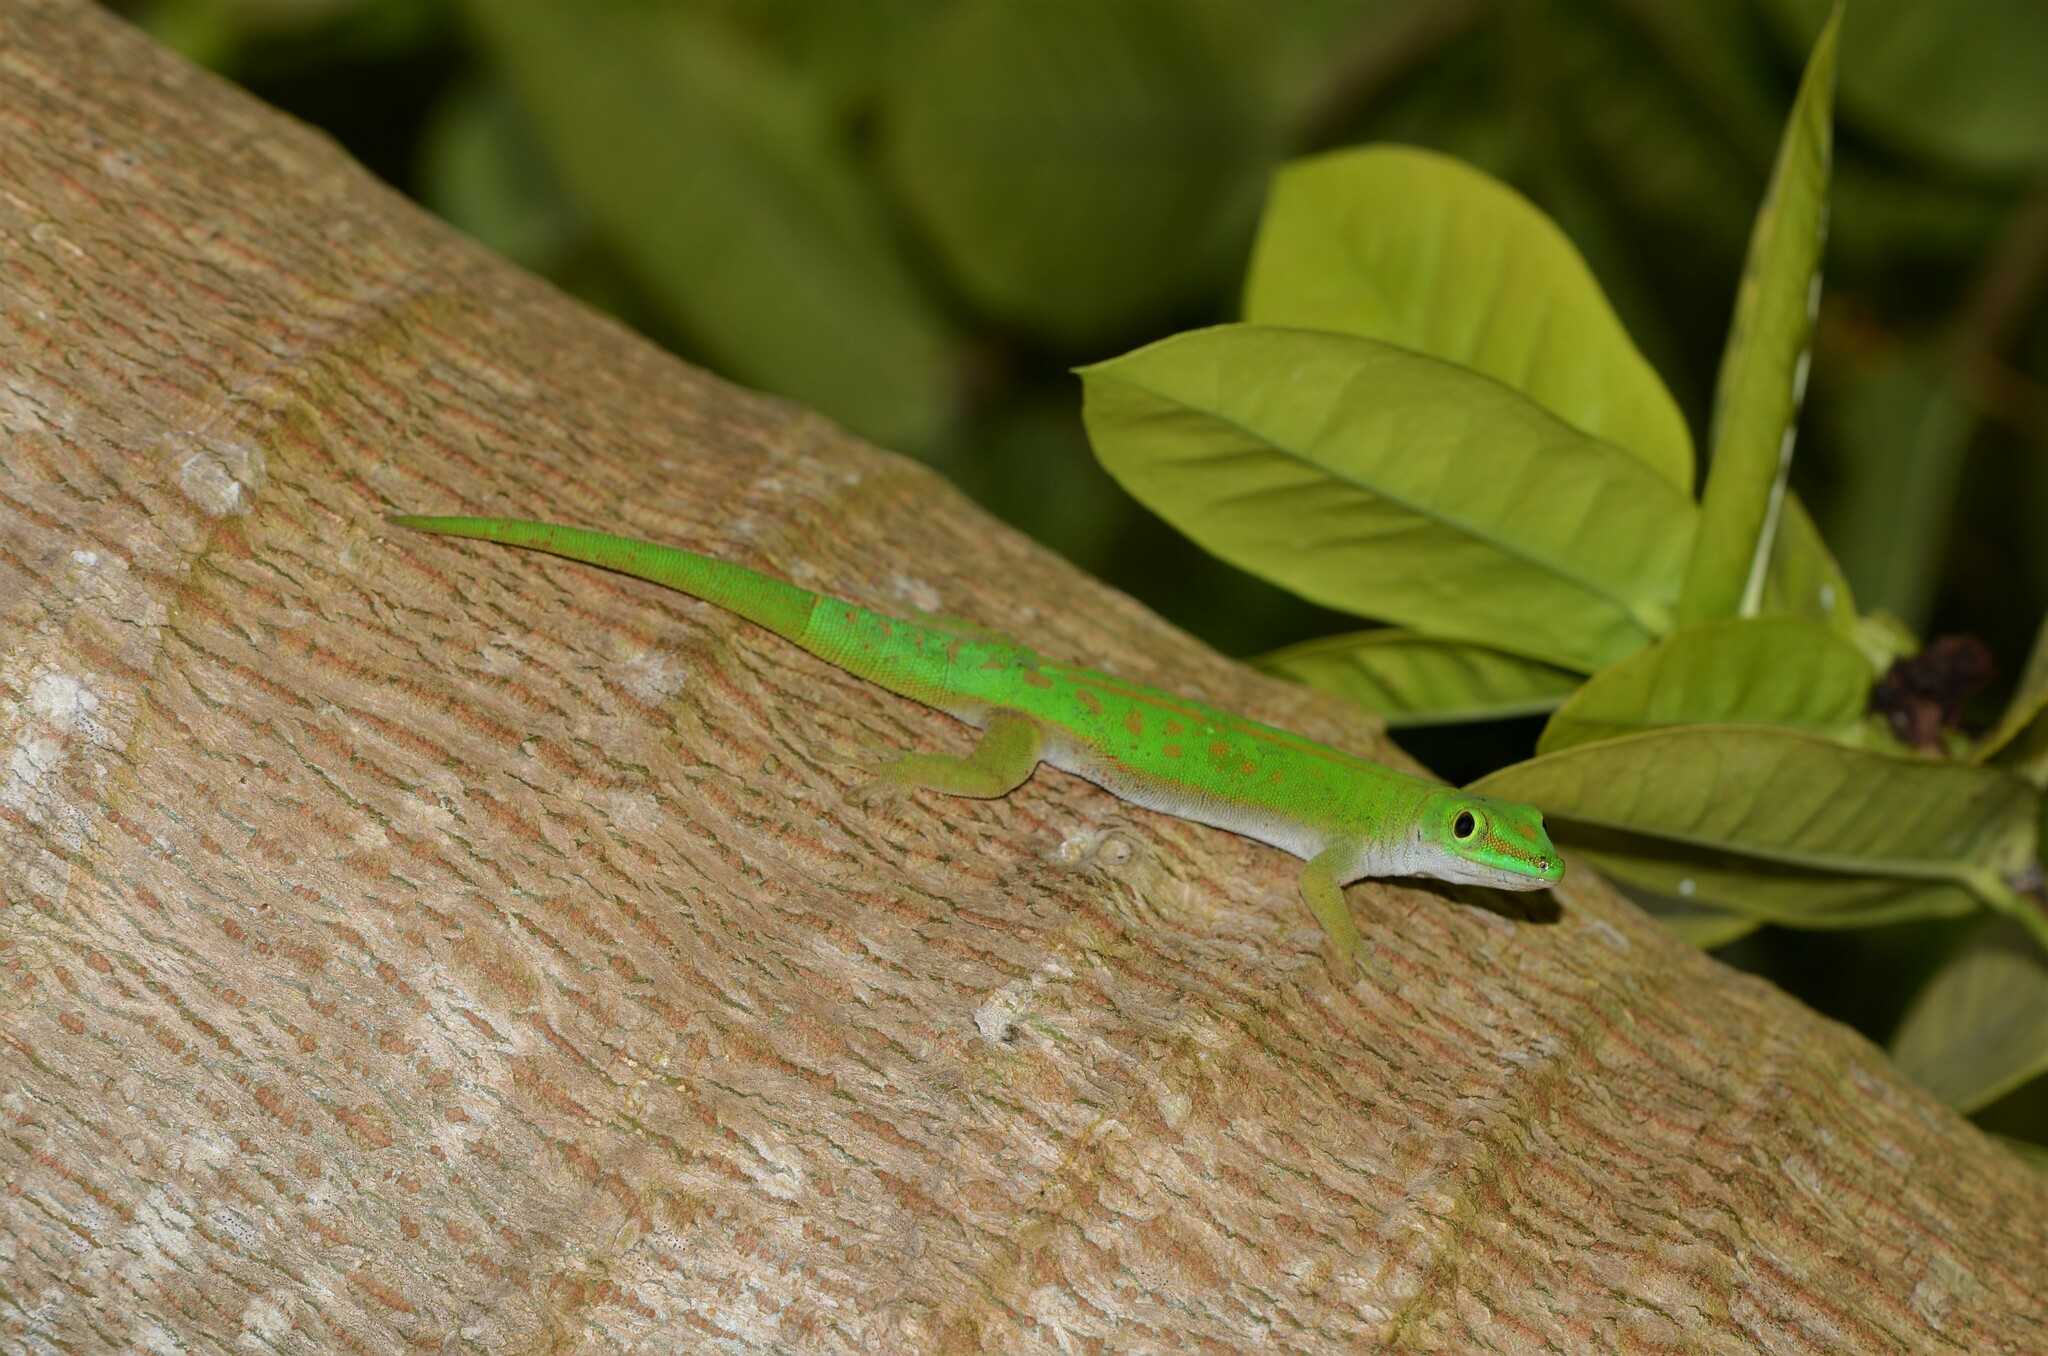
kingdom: Animalia
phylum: Chordata
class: Squamata
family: Gekkonidae
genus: Phelsuma
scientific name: Phelsuma astriata
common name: Seychelles day gecko
